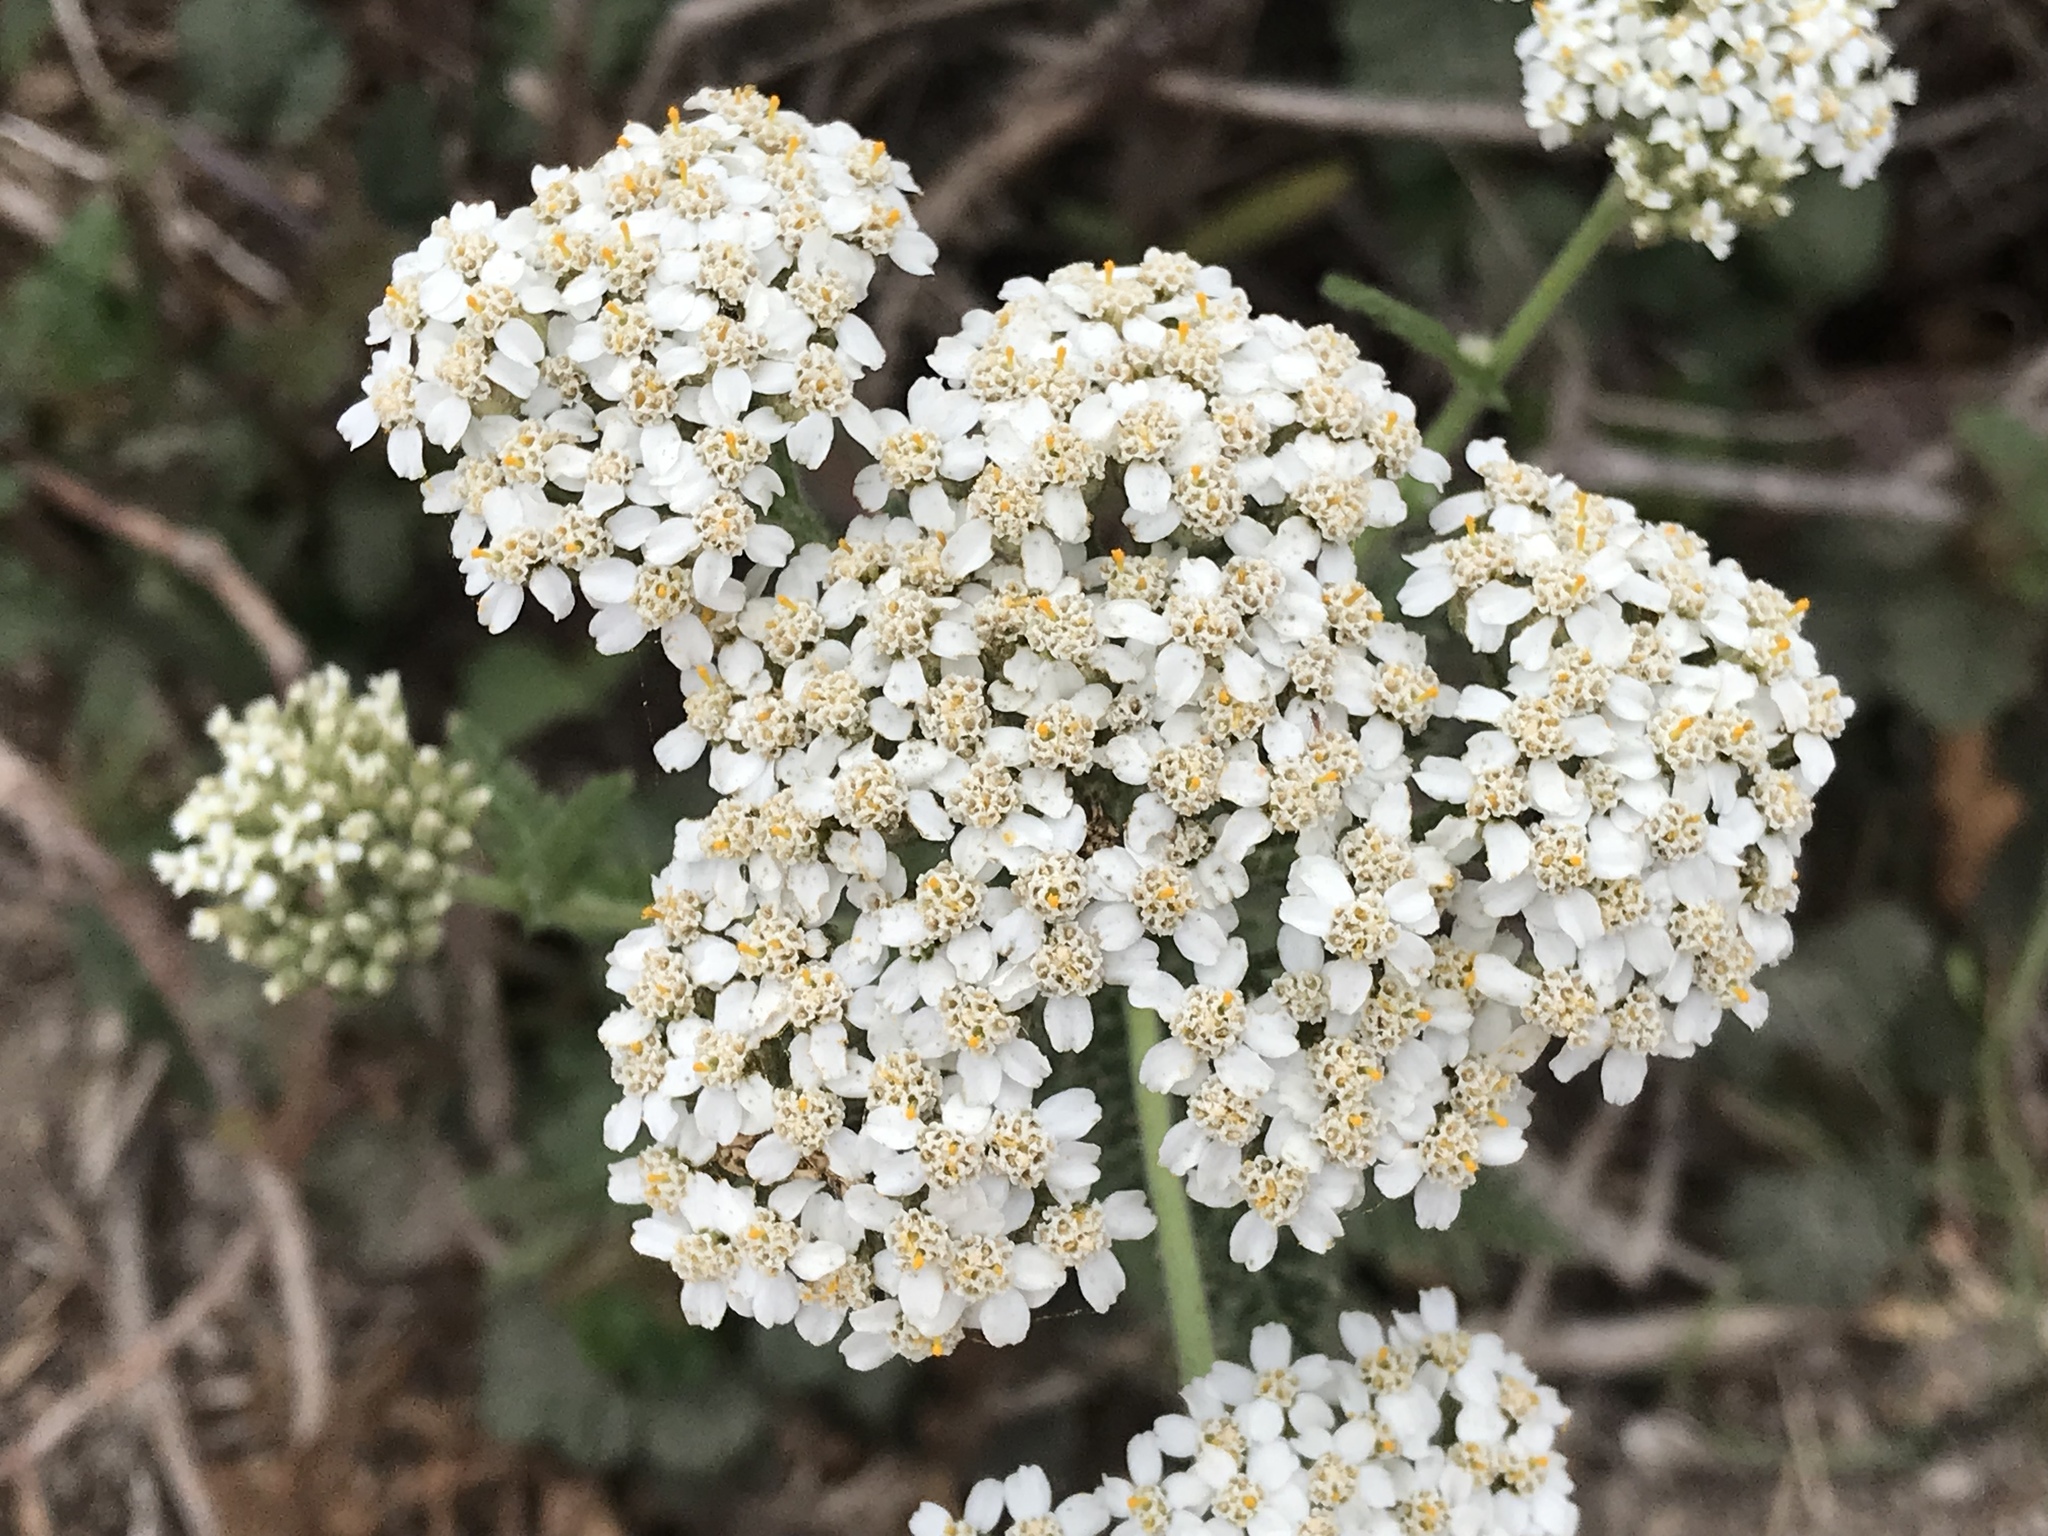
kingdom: Plantae
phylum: Tracheophyta
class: Magnoliopsida
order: Asterales
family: Asteraceae
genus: Achillea
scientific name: Achillea millefolium
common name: Yarrow
